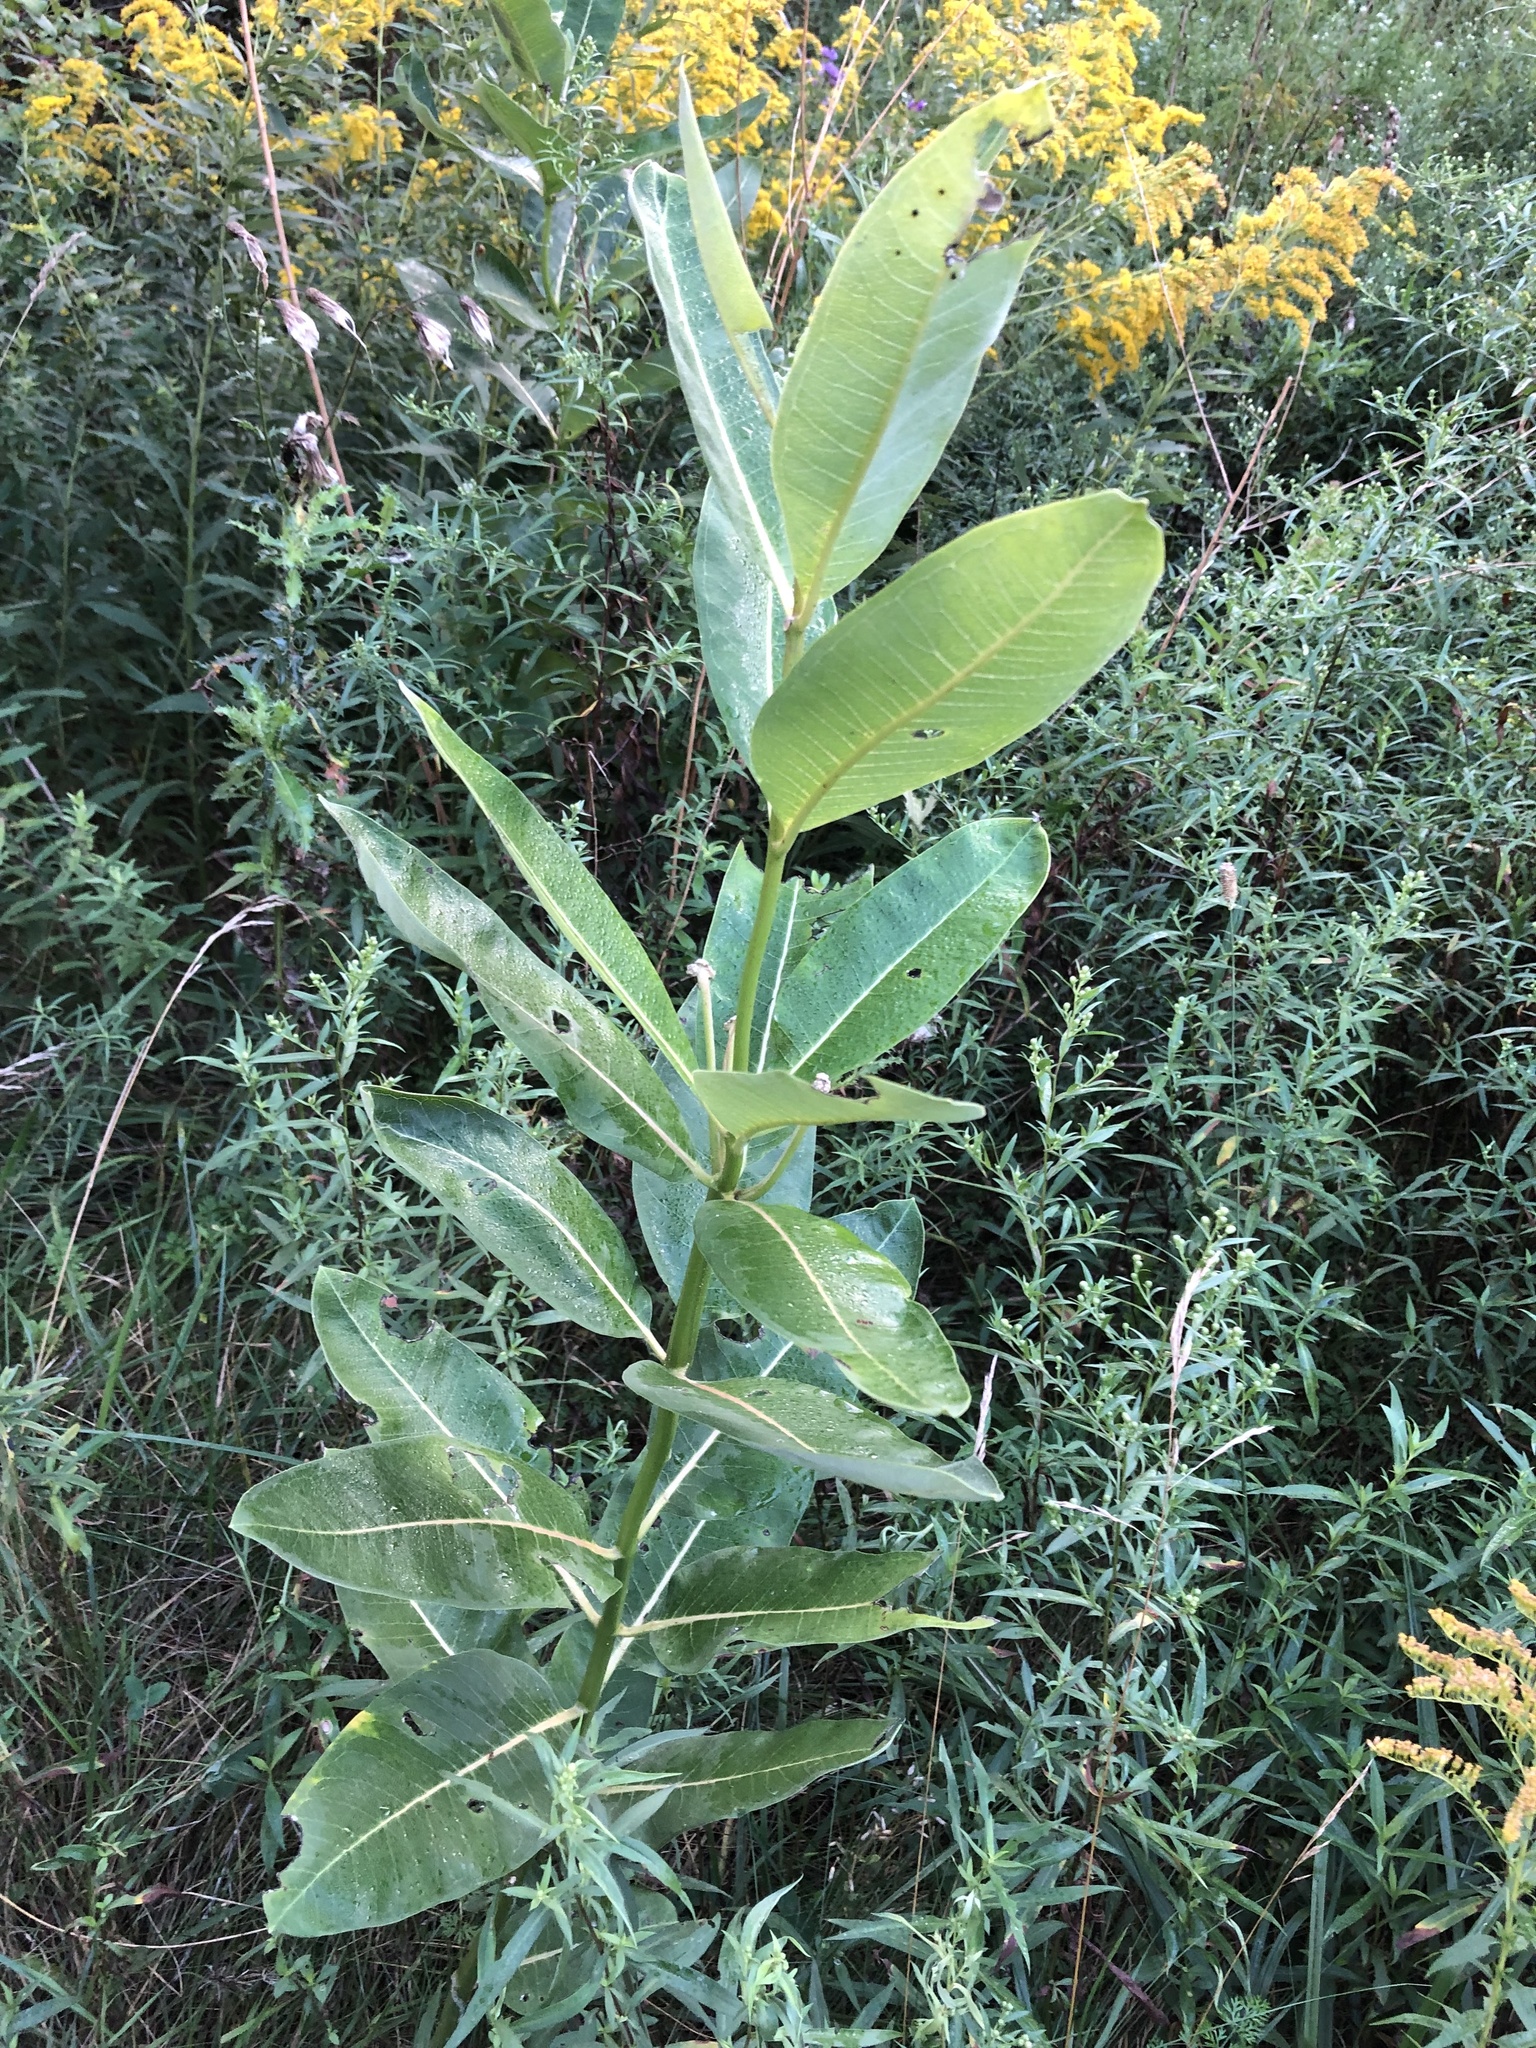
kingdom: Plantae
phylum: Tracheophyta
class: Magnoliopsida
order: Gentianales
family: Apocynaceae
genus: Asclepias
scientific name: Asclepias syriaca
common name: Common milkweed
